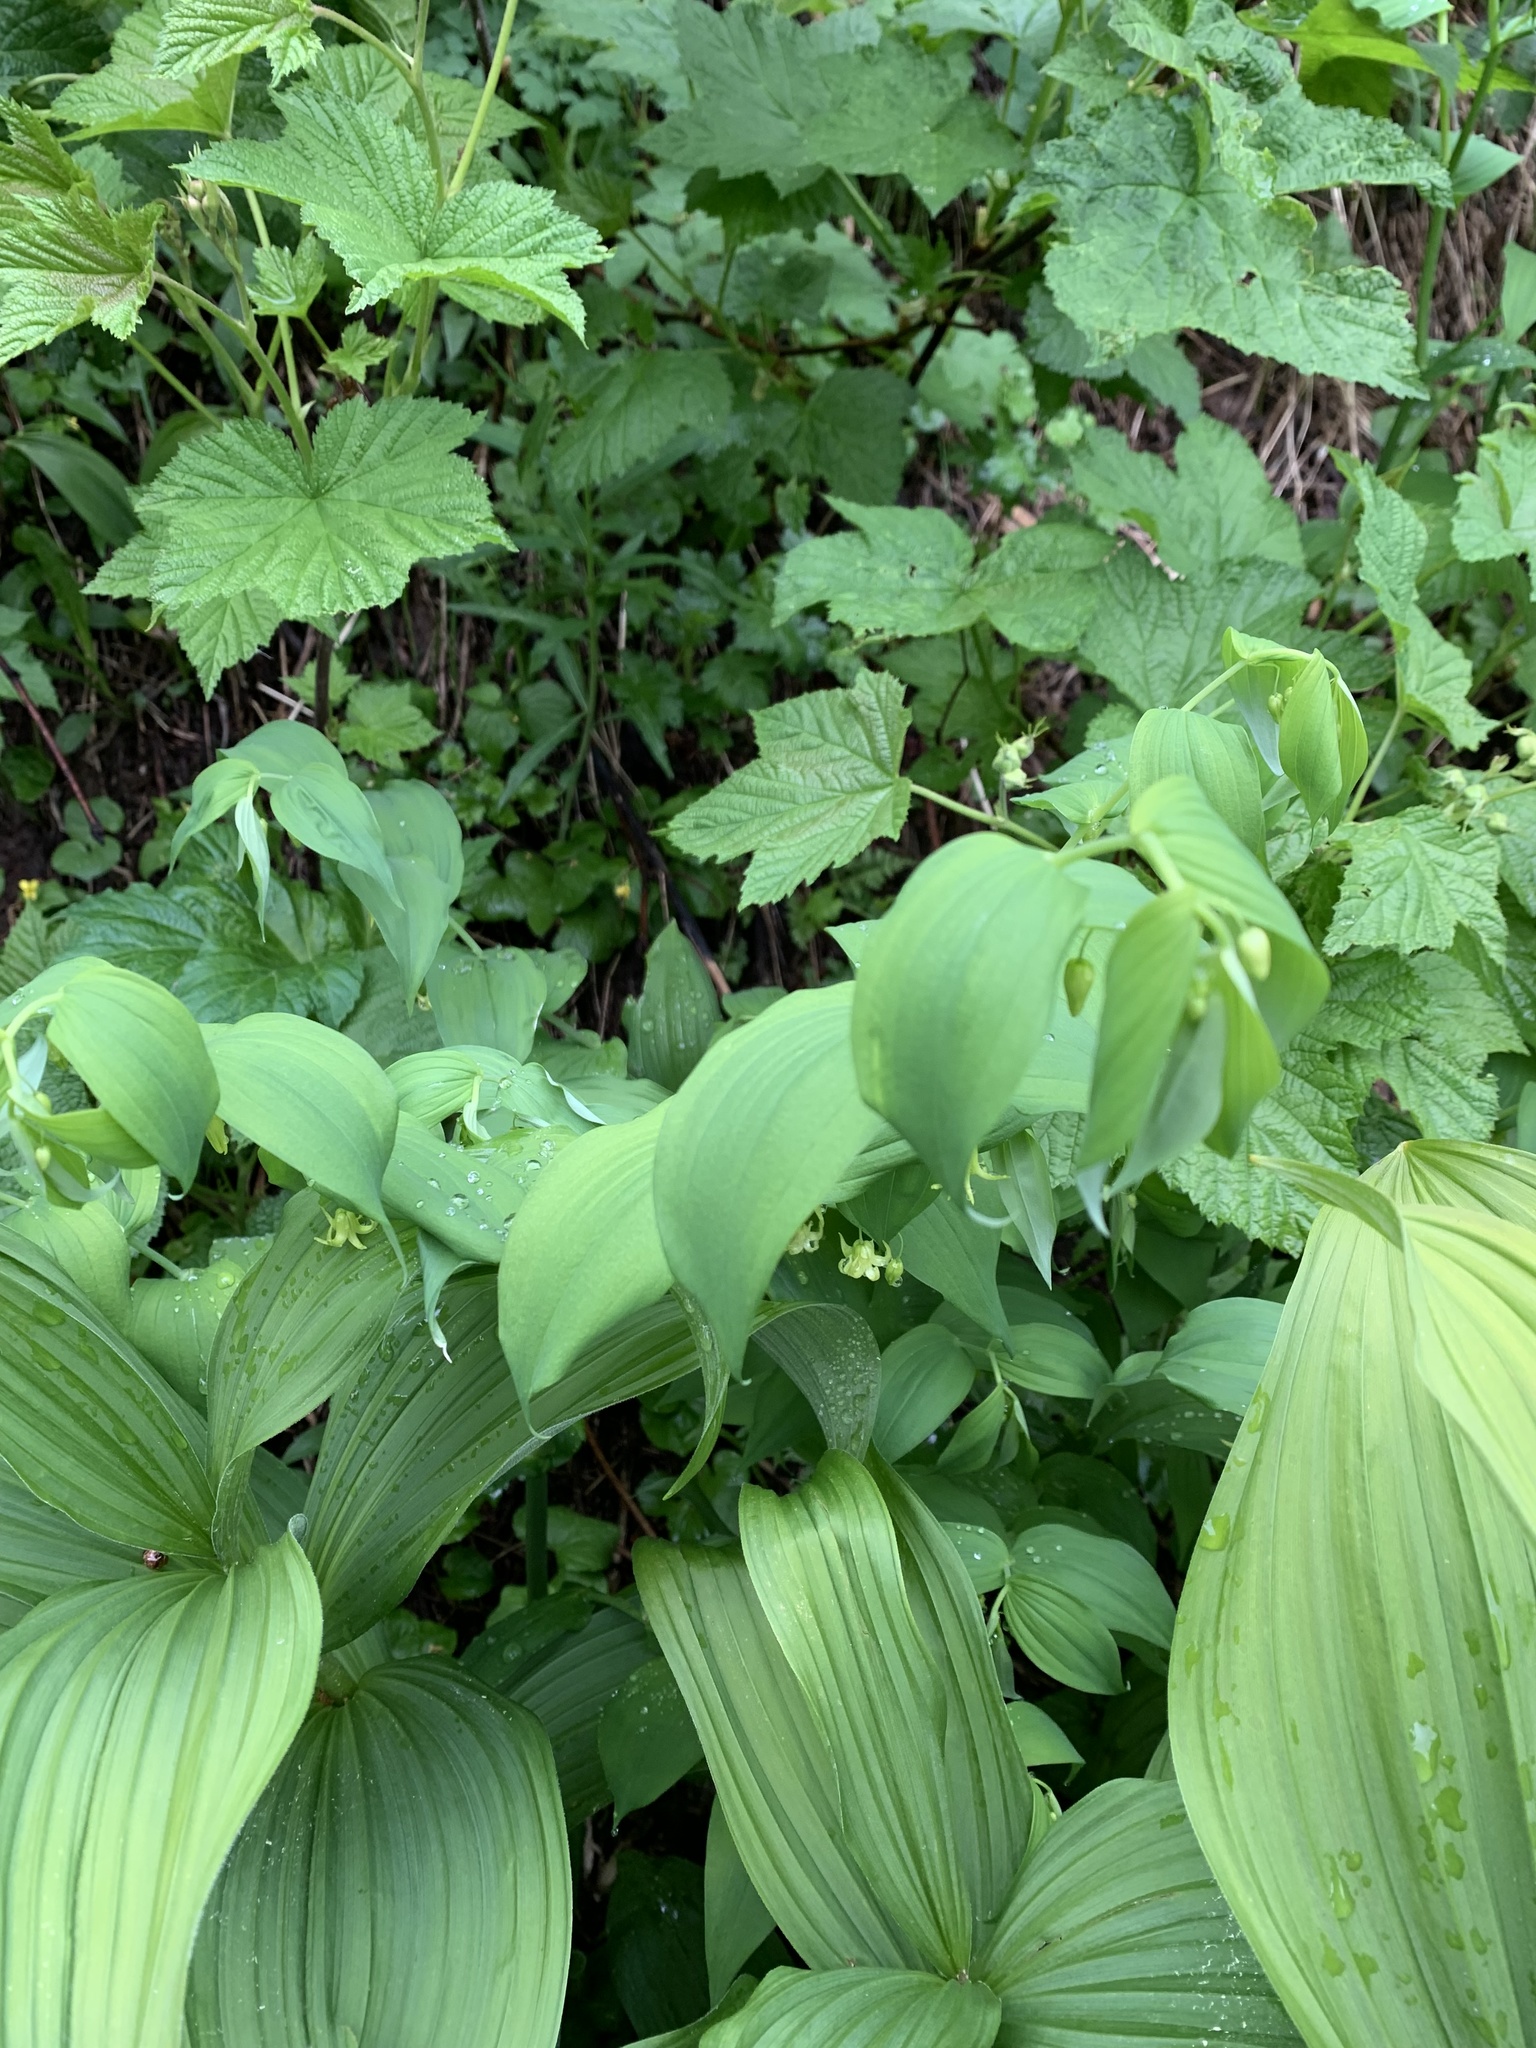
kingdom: Plantae
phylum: Tracheophyta
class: Liliopsida
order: Liliales
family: Liliaceae
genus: Streptopus
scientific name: Streptopus amplexifolius
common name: Clasp twisted stalk
